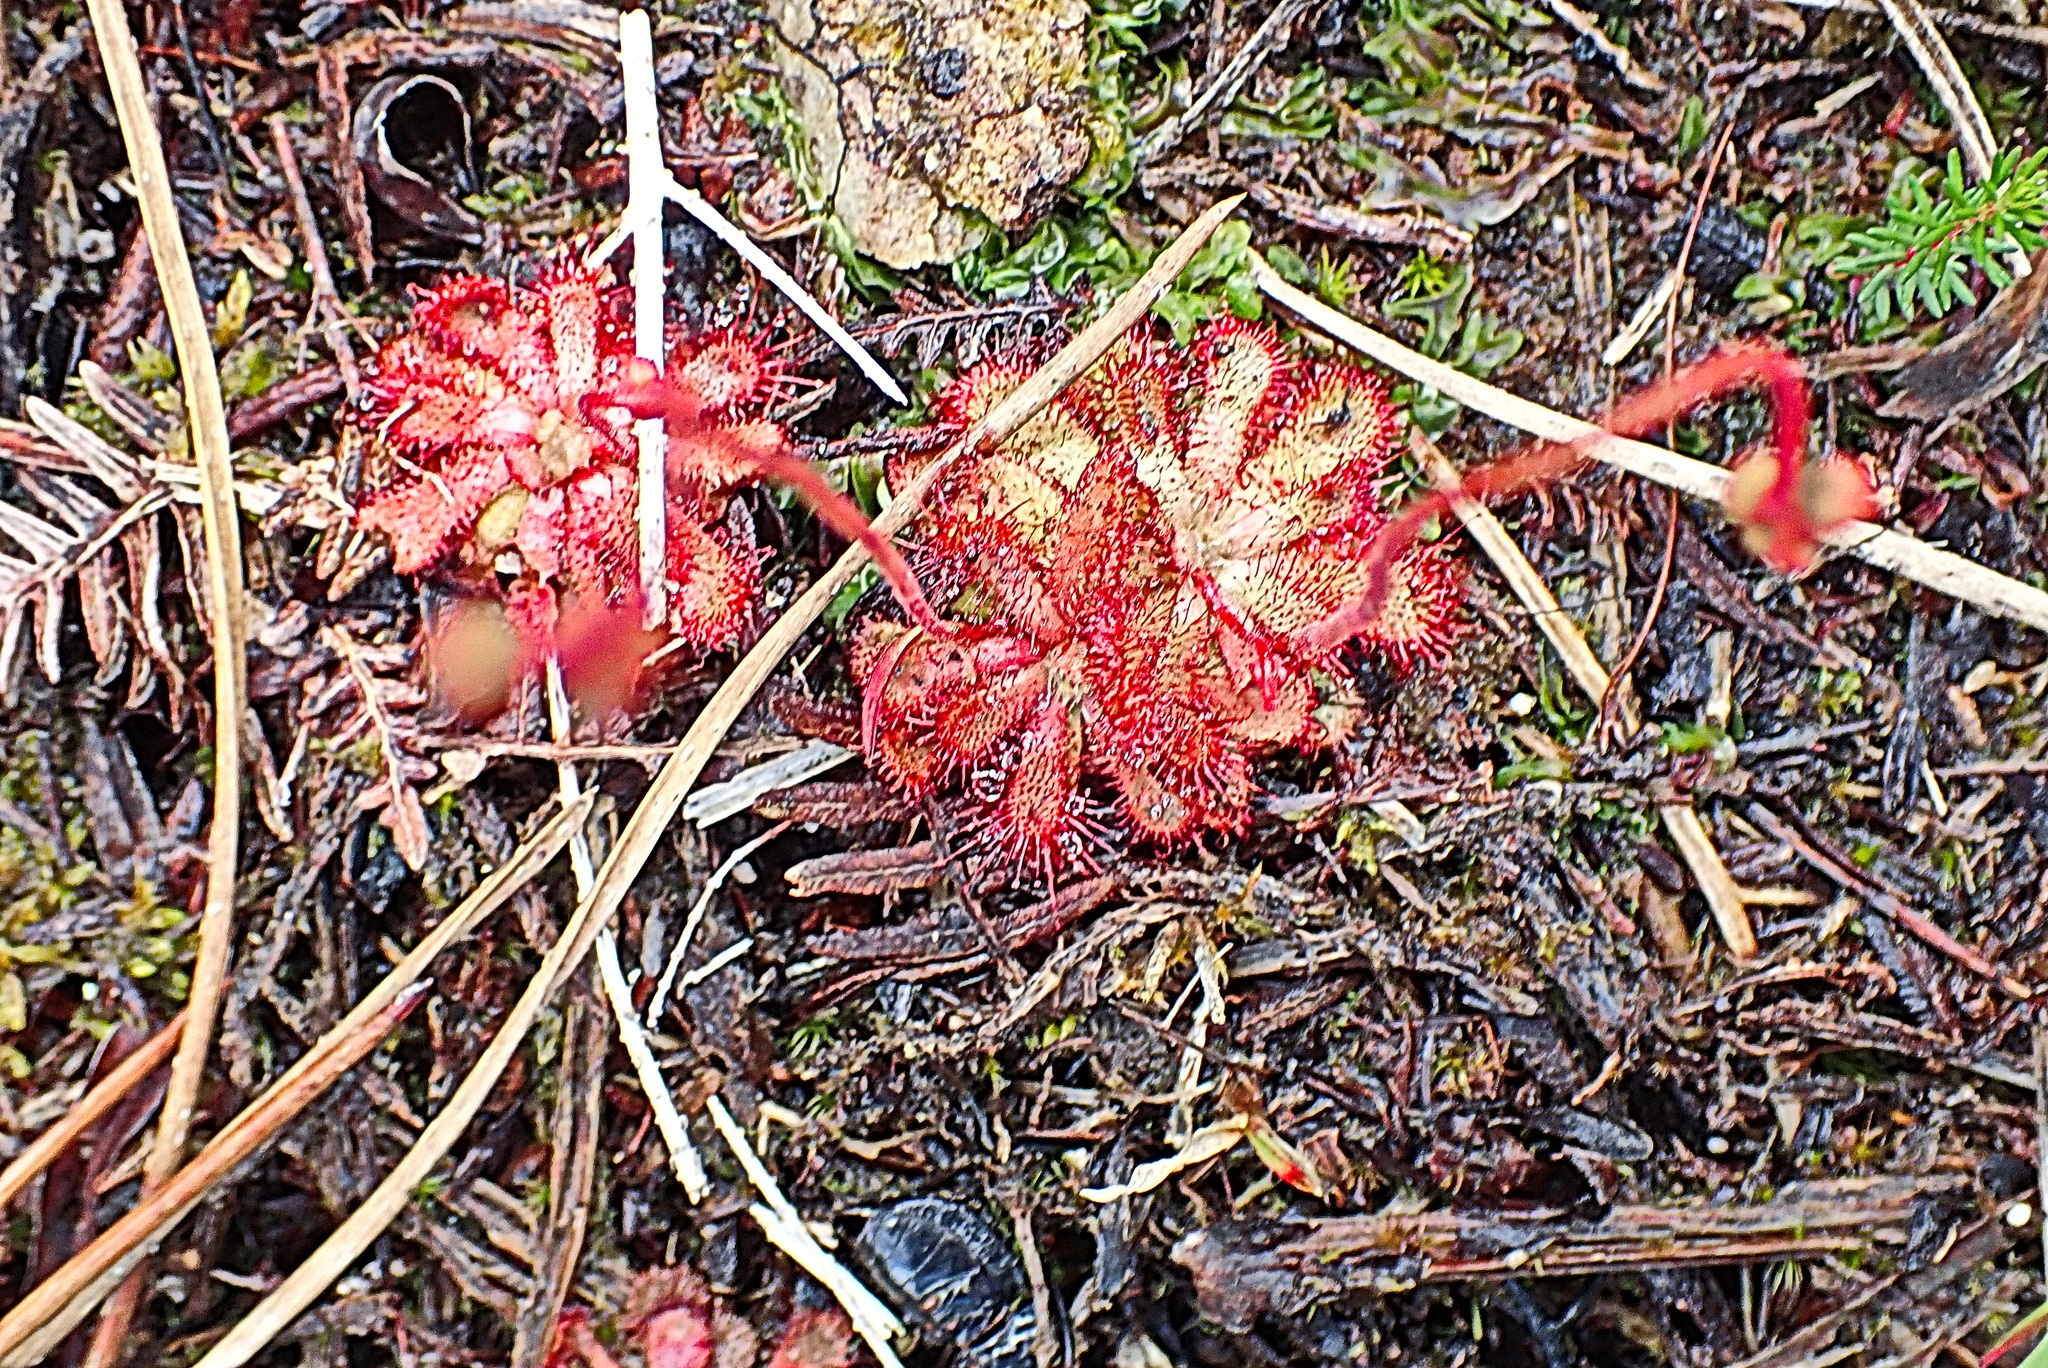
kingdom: Plantae
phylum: Tracheophyta
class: Magnoliopsida
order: Caryophyllales
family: Droseraceae
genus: Drosera
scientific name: Drosera aliciae
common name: Alice sundew
